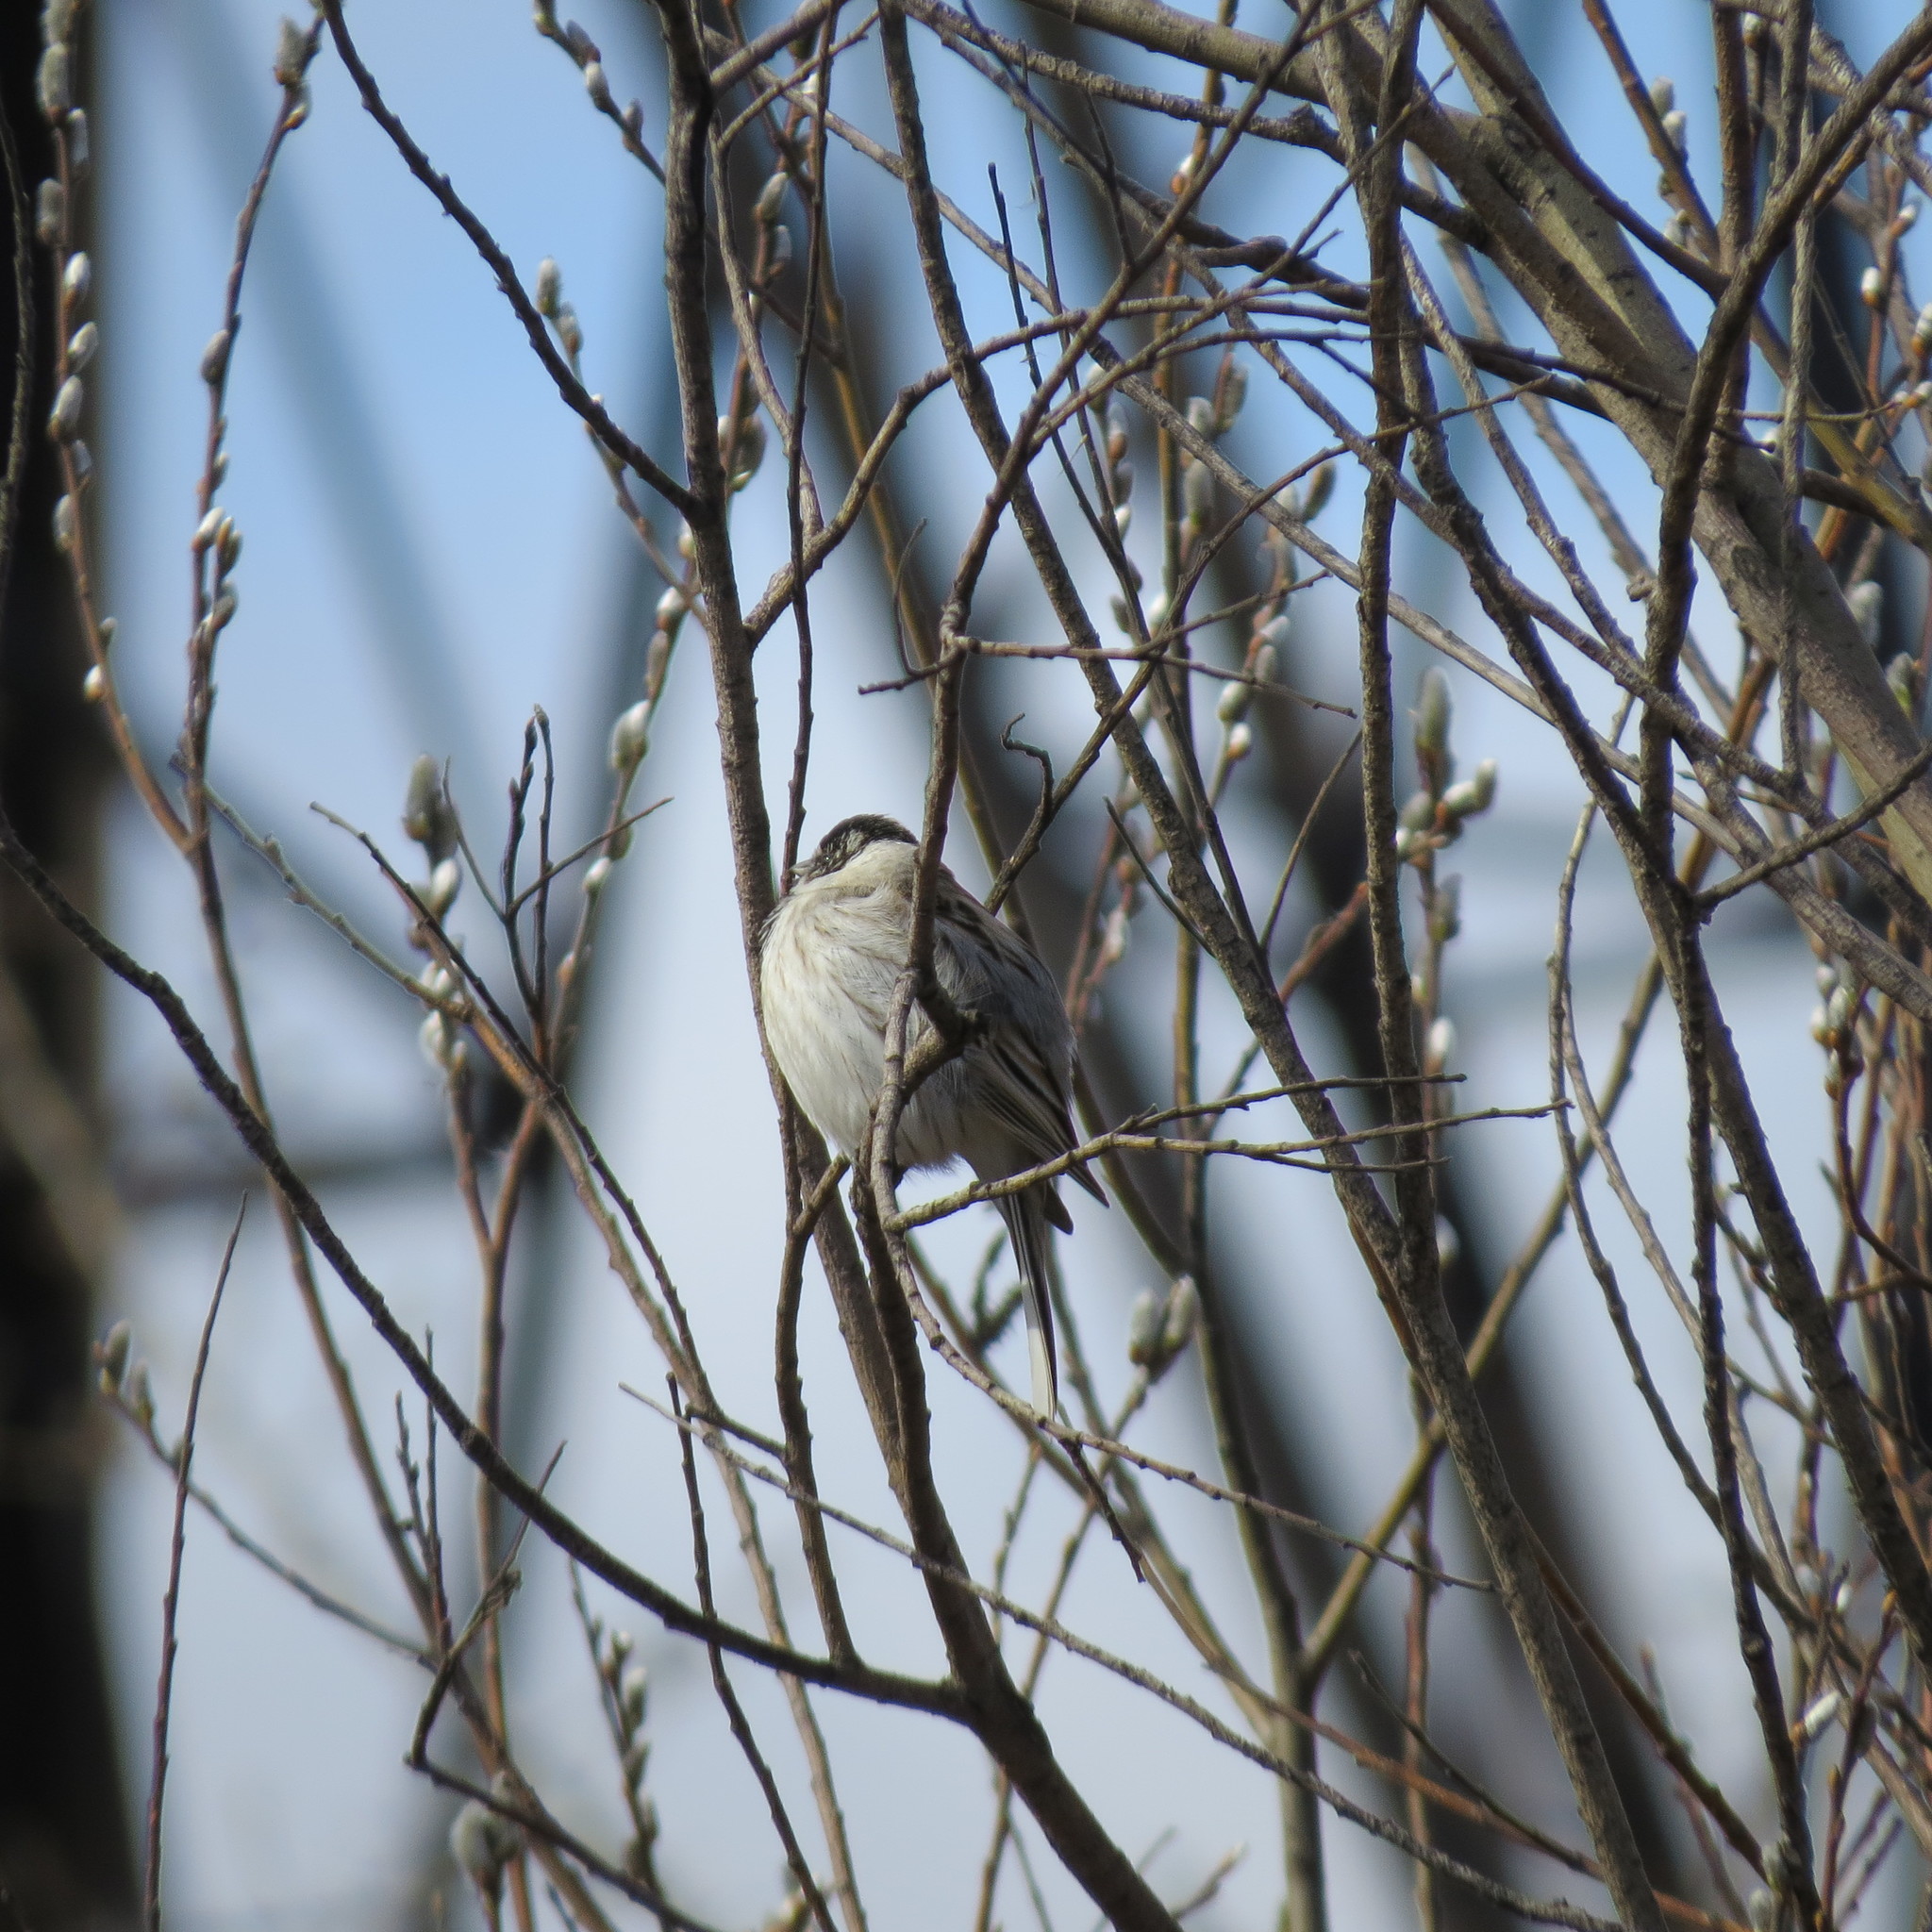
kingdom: Animalia
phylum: Chordata
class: Aves
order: Passeriformes
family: Emberizidae
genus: Emberiza
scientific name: Emberiza schoeniclus
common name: Reed bunting
